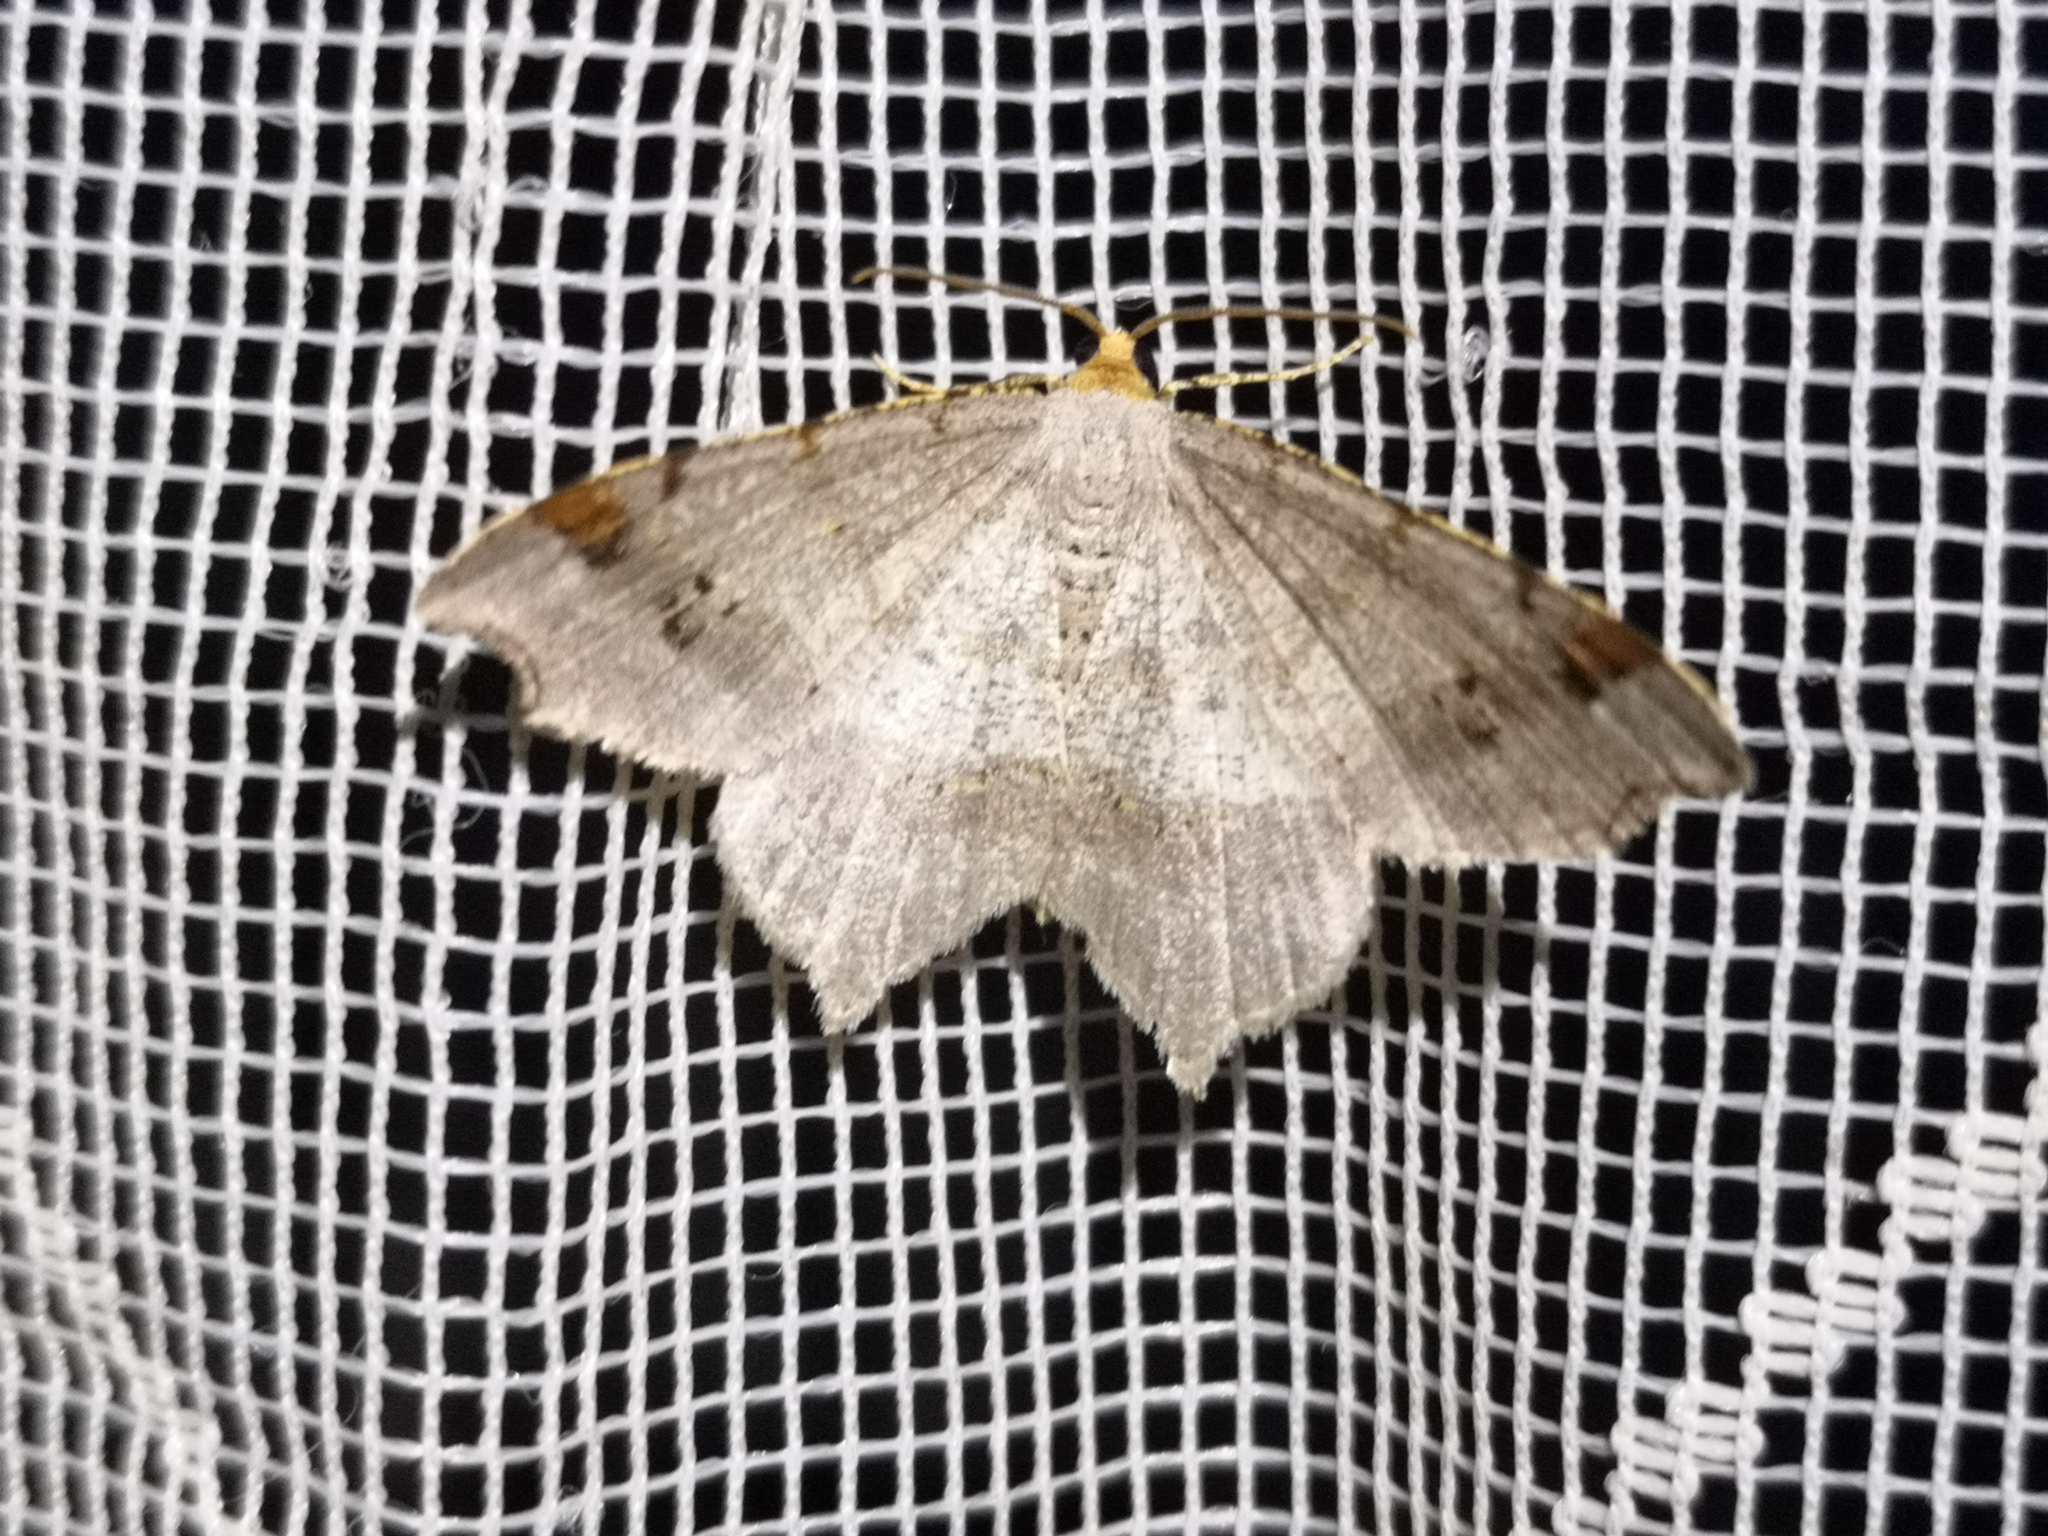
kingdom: Animalia
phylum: Arthropoda
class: Insecta
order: Lepidoptera
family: Geometridae
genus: Macaria
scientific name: Macaria alternata
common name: Sharp-angled peacock
